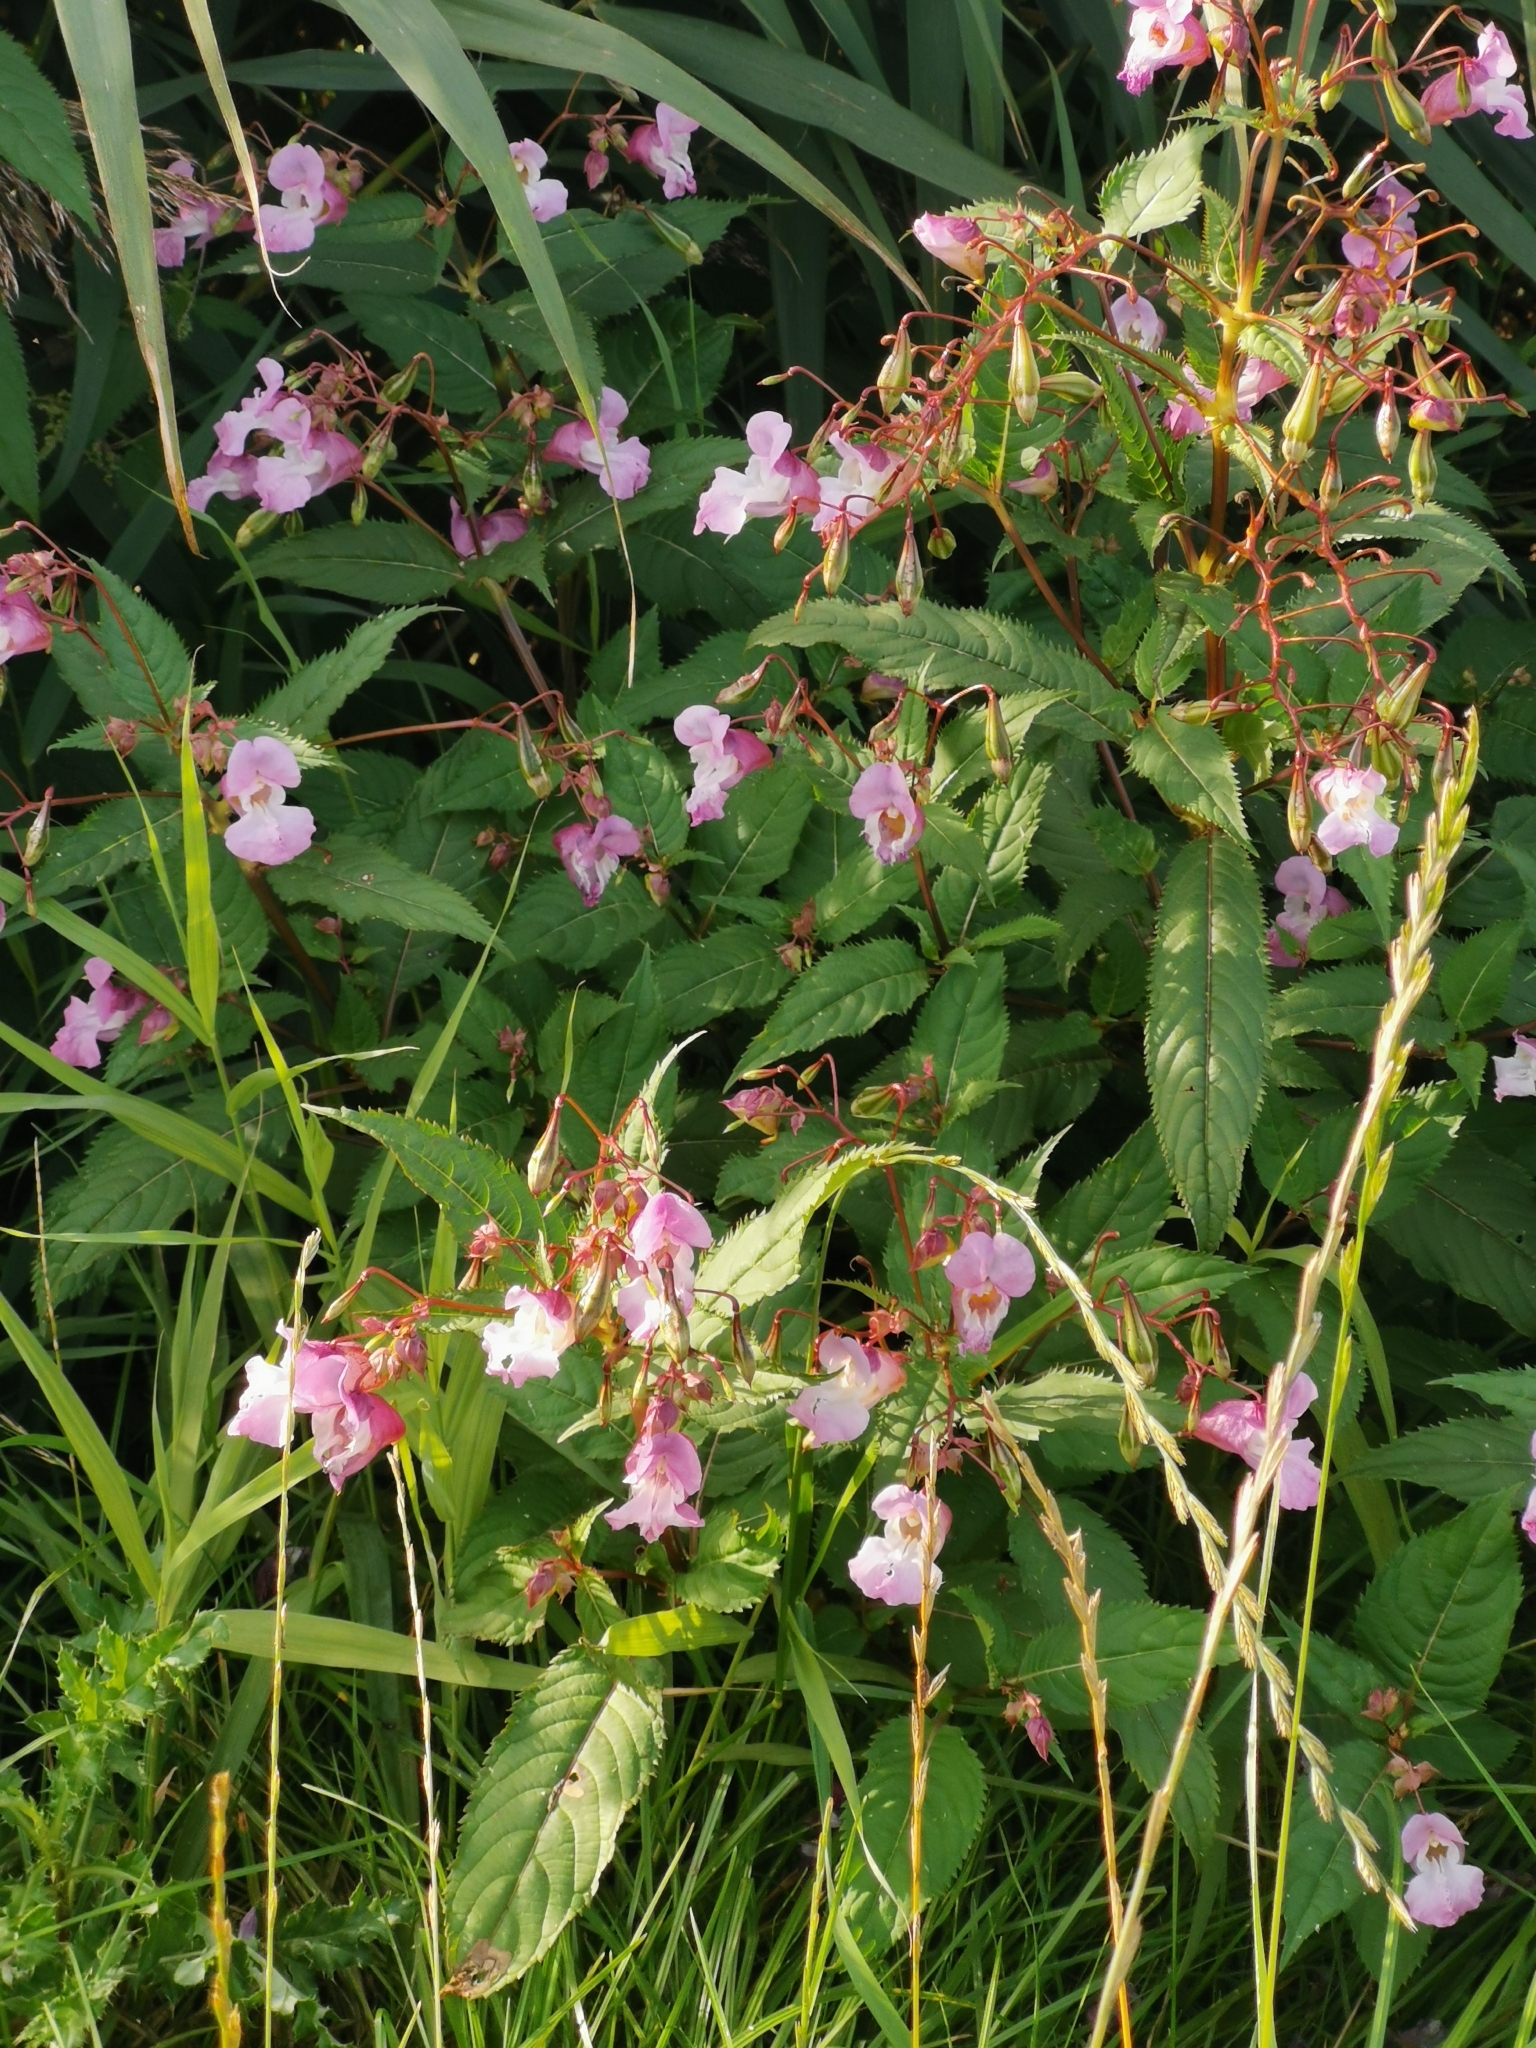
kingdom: Plantae
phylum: Tracheophyta
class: Magnoliopsida
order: Ericales
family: Balsaminaceae
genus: Impatiens
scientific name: Impatiens glandulifera
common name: Himalayan balsam
